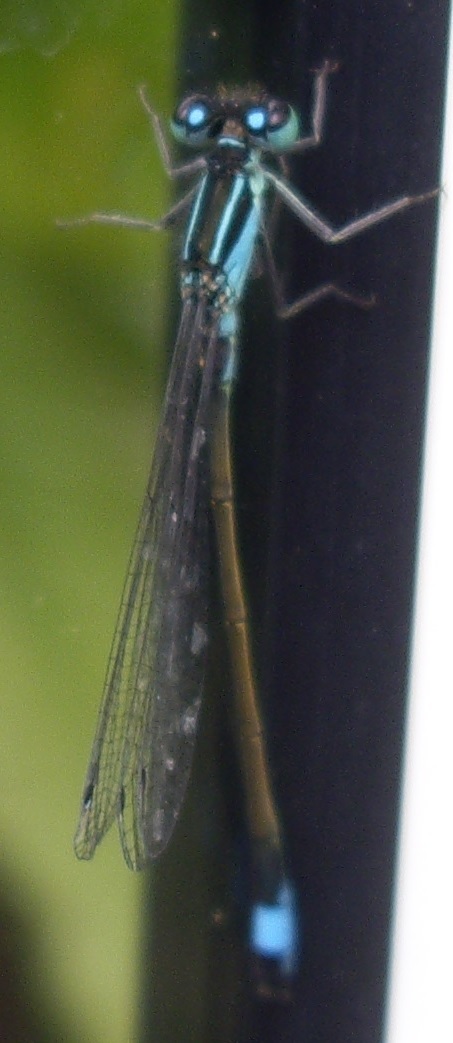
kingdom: Animalia
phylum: Arthropoda
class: Insecta
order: Odonata
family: Coenagrionidae
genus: Ischnura
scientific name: Ischnura elegans
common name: Blue-tailed damselfly
